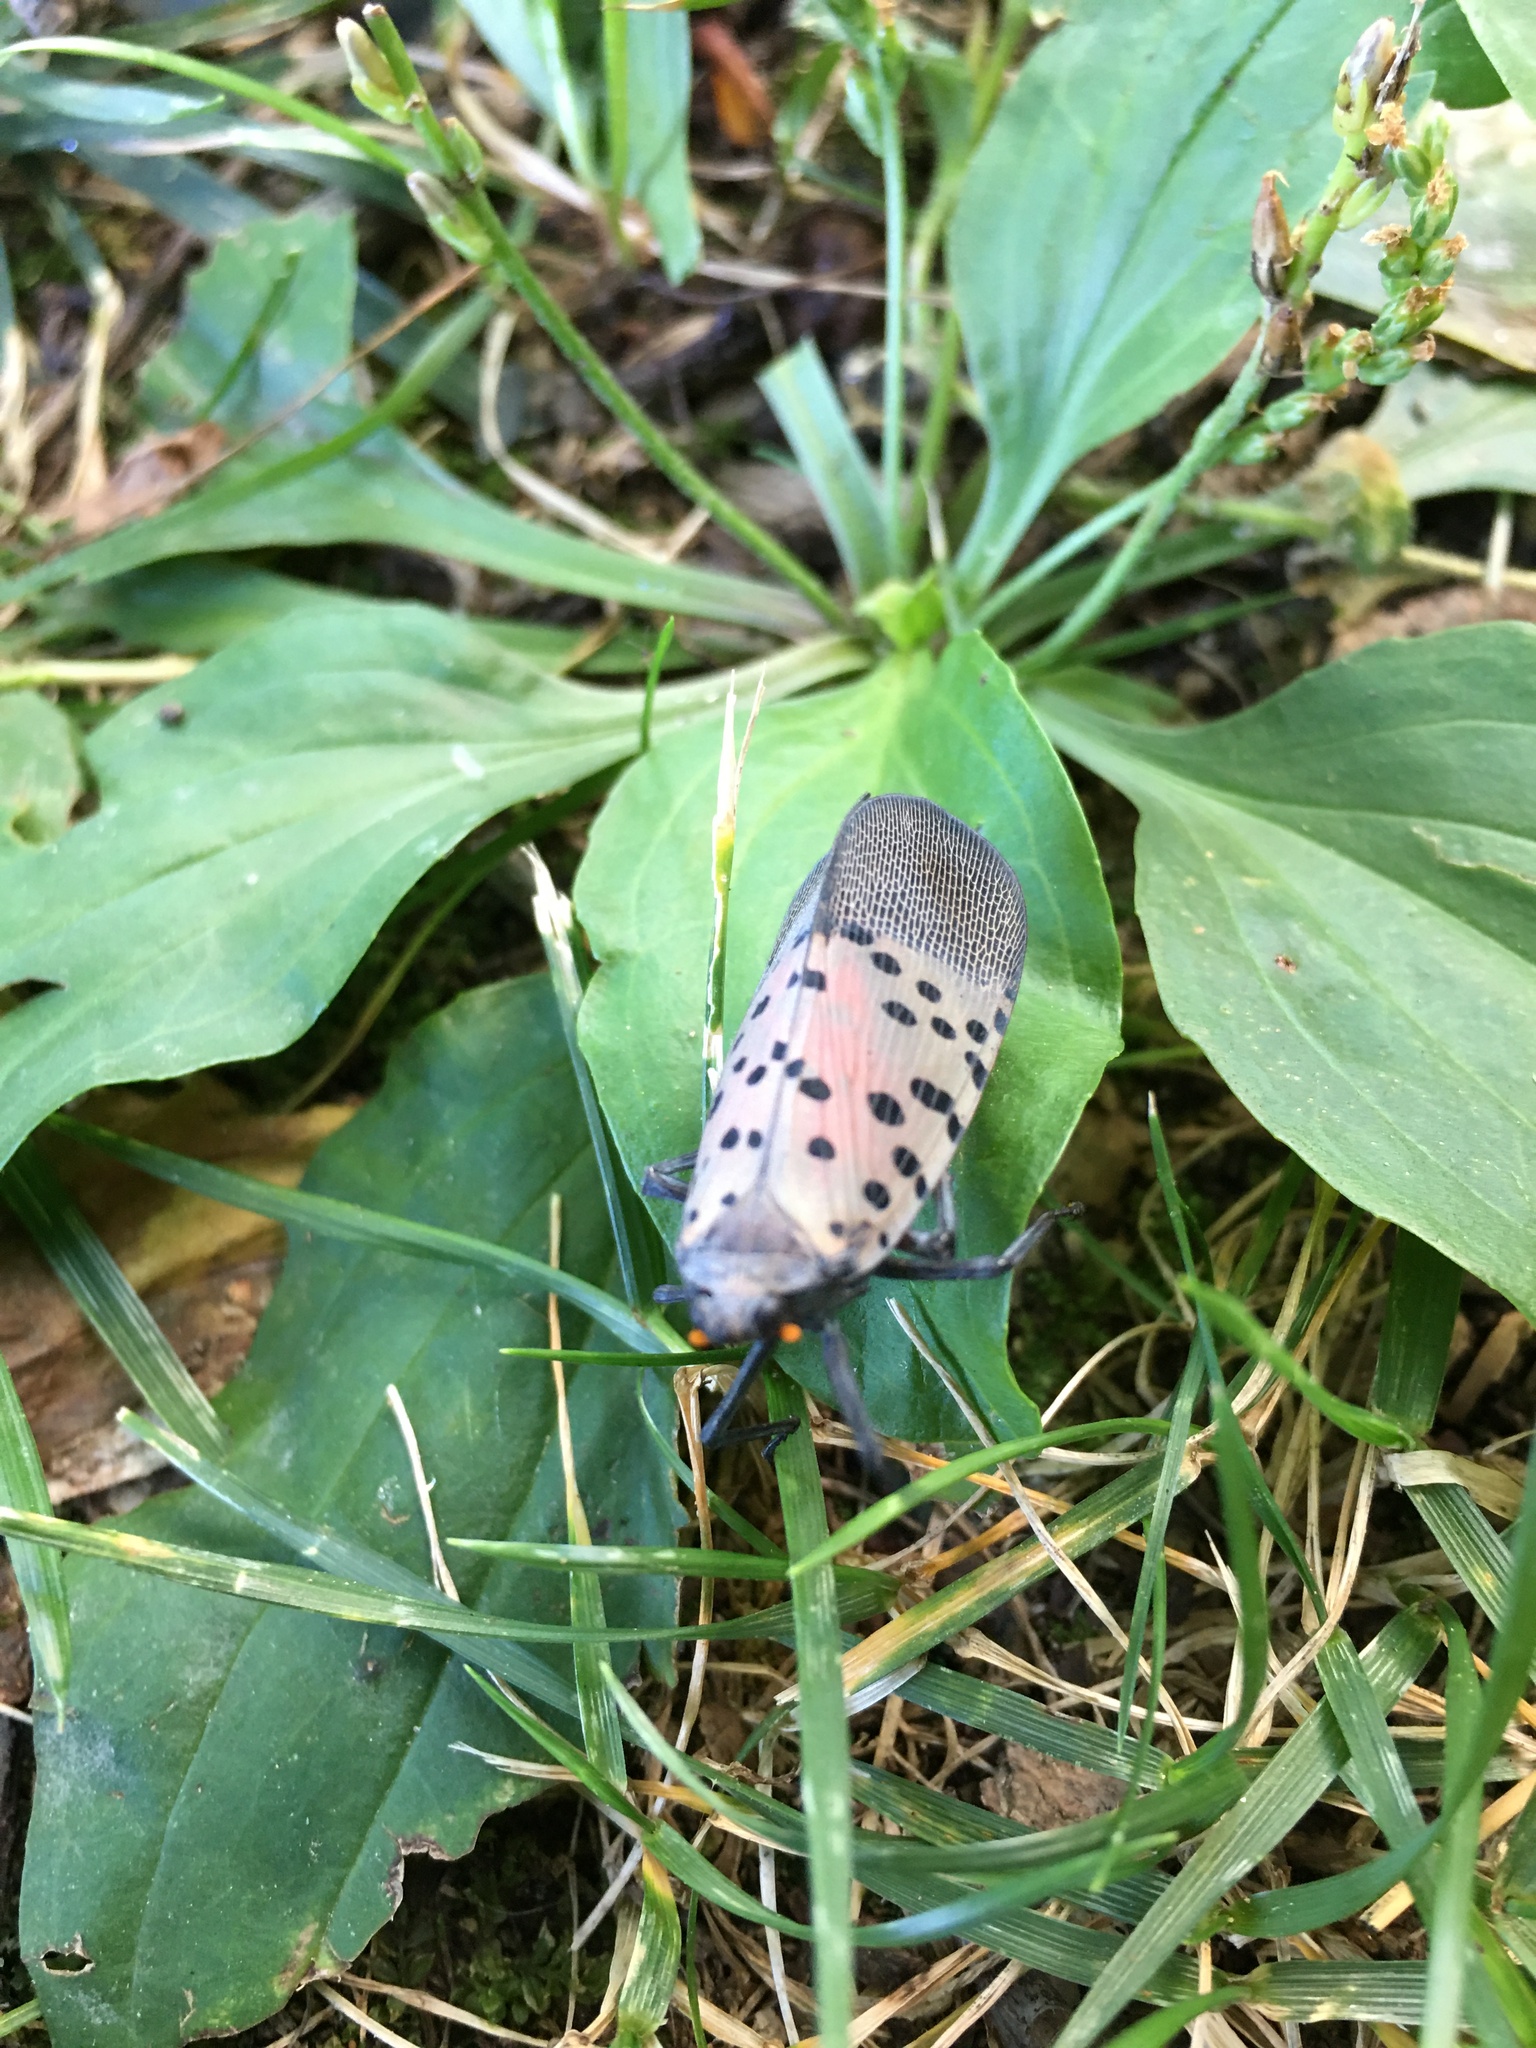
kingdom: Animalia
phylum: Arthropoda
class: Insecta
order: Hemiptera
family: Fulgoridae
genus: Lycorma
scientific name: Lycorma delicatula
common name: Spotted lanternfly
